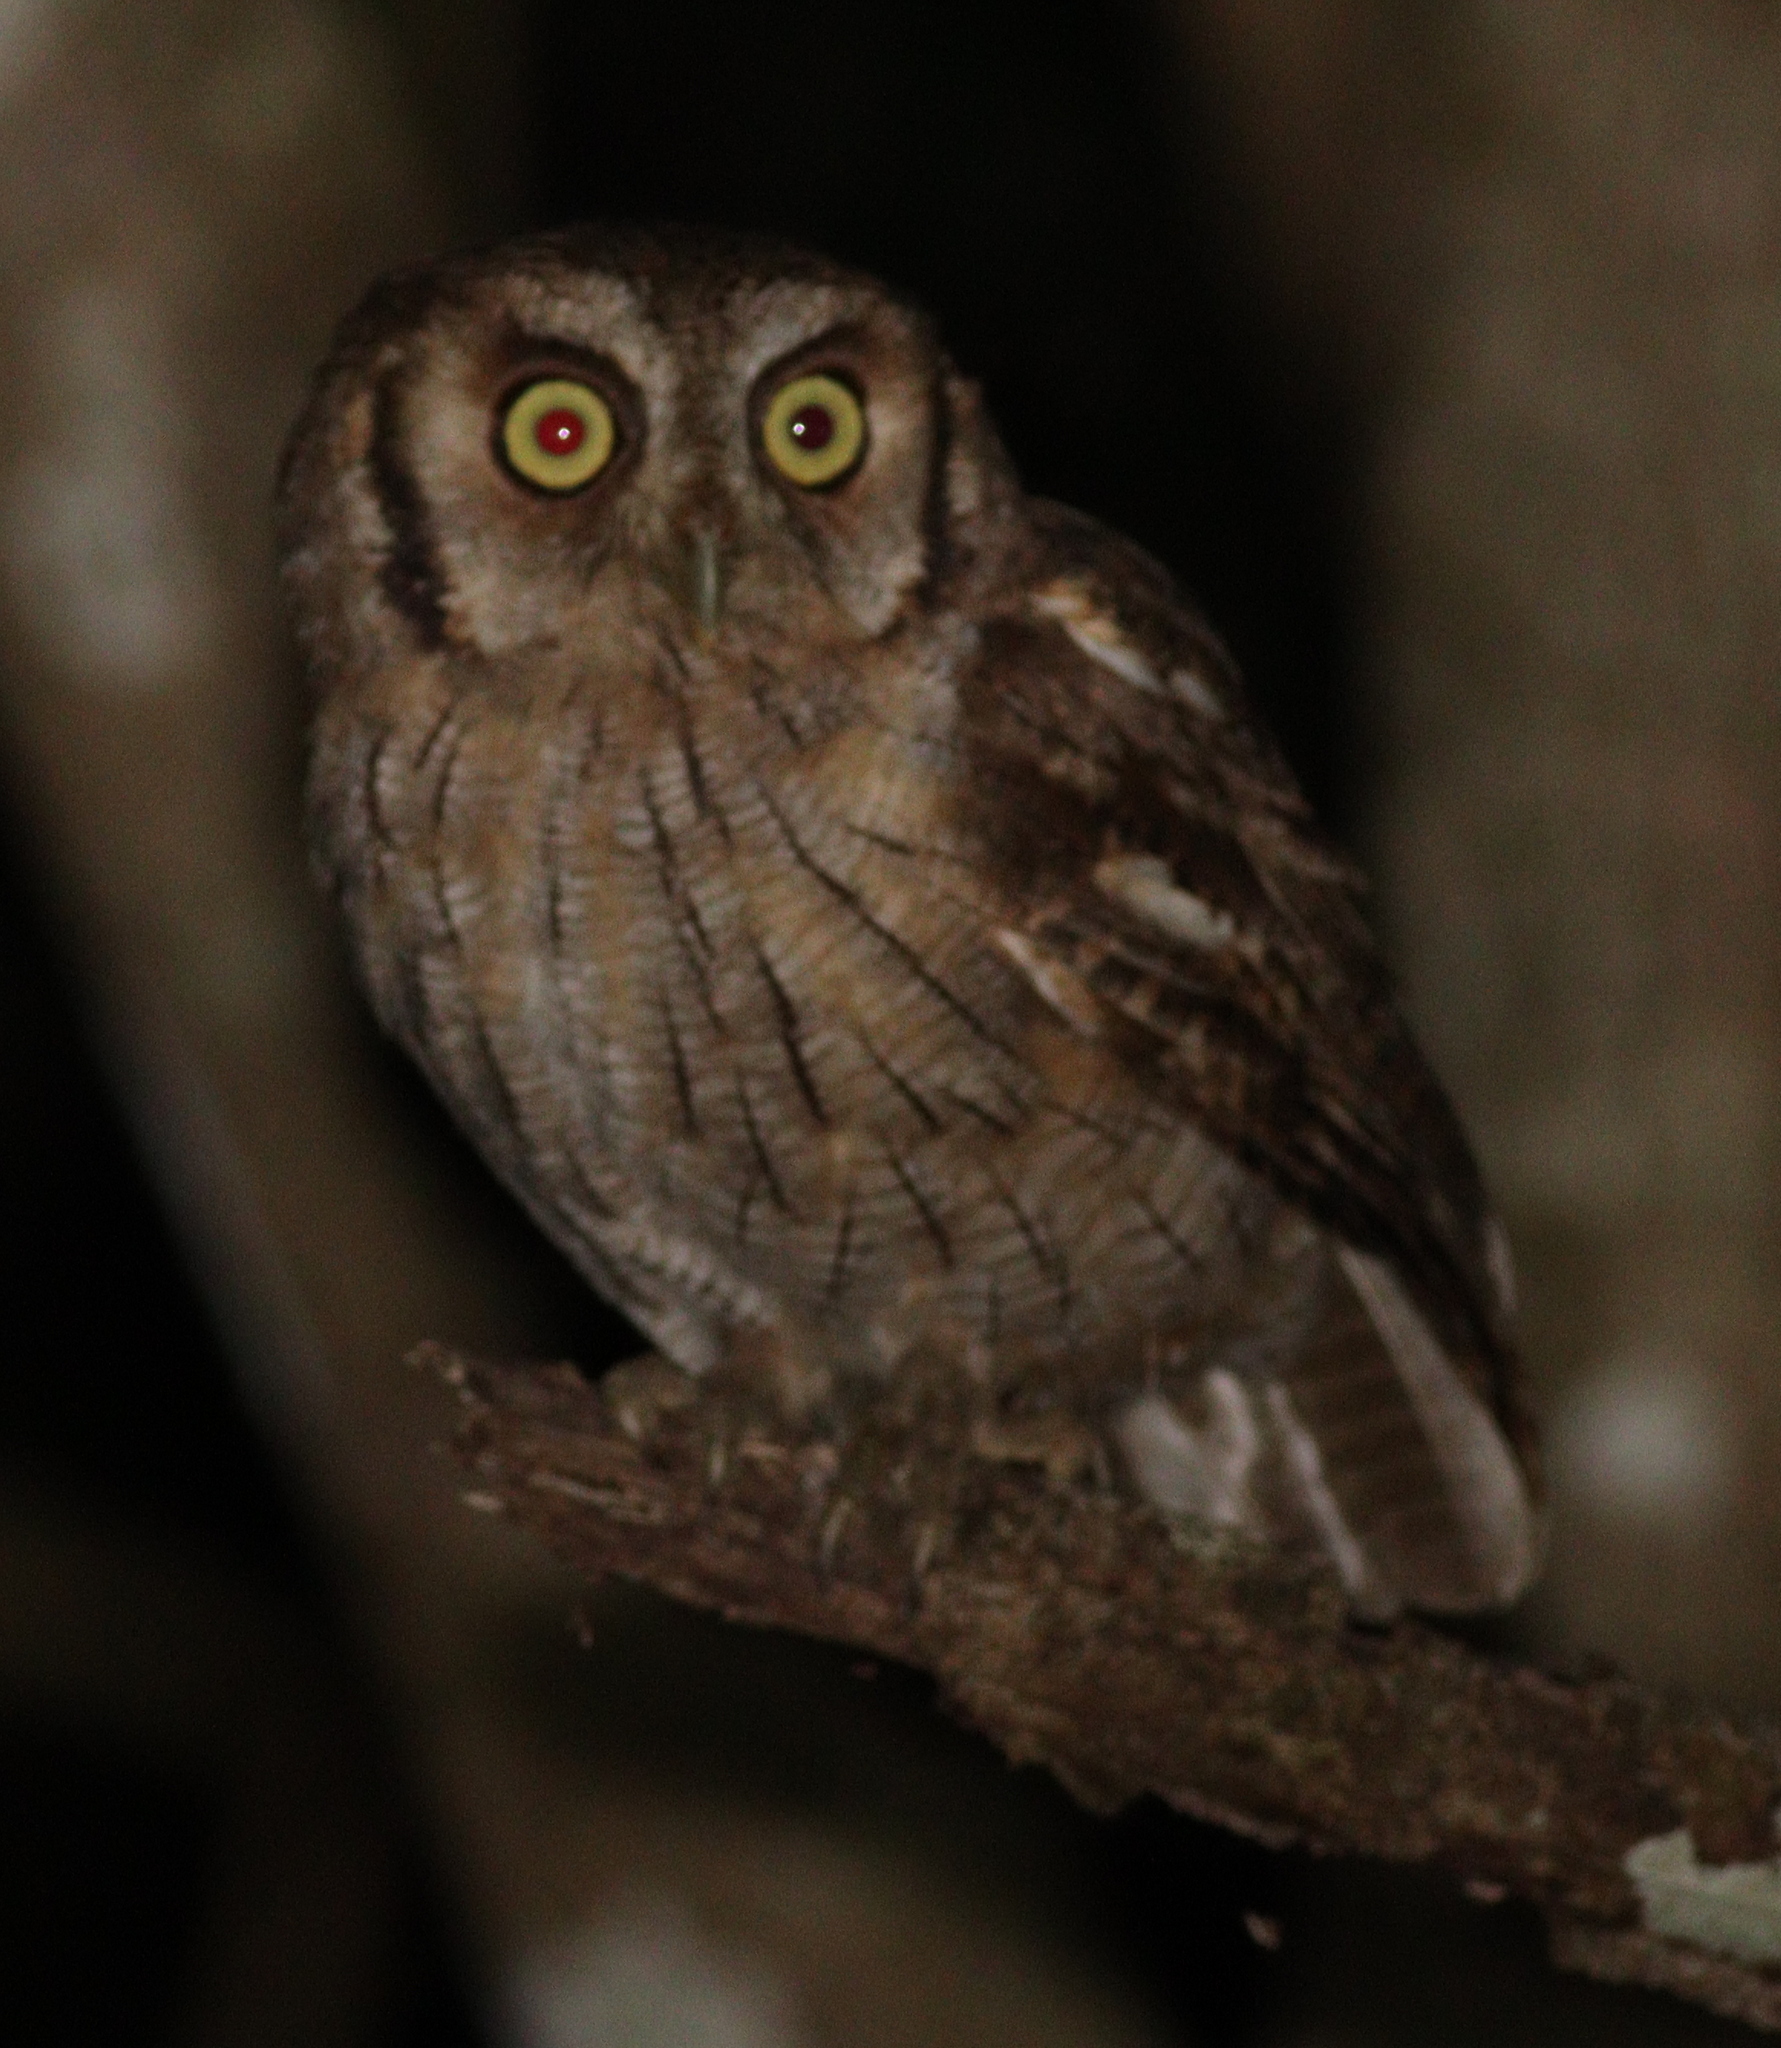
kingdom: Animalia
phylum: Chordata
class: Aves
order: Strigiformes
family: Strigidae
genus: Megascops
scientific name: Megascops choliba
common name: Tropical screech-owl
